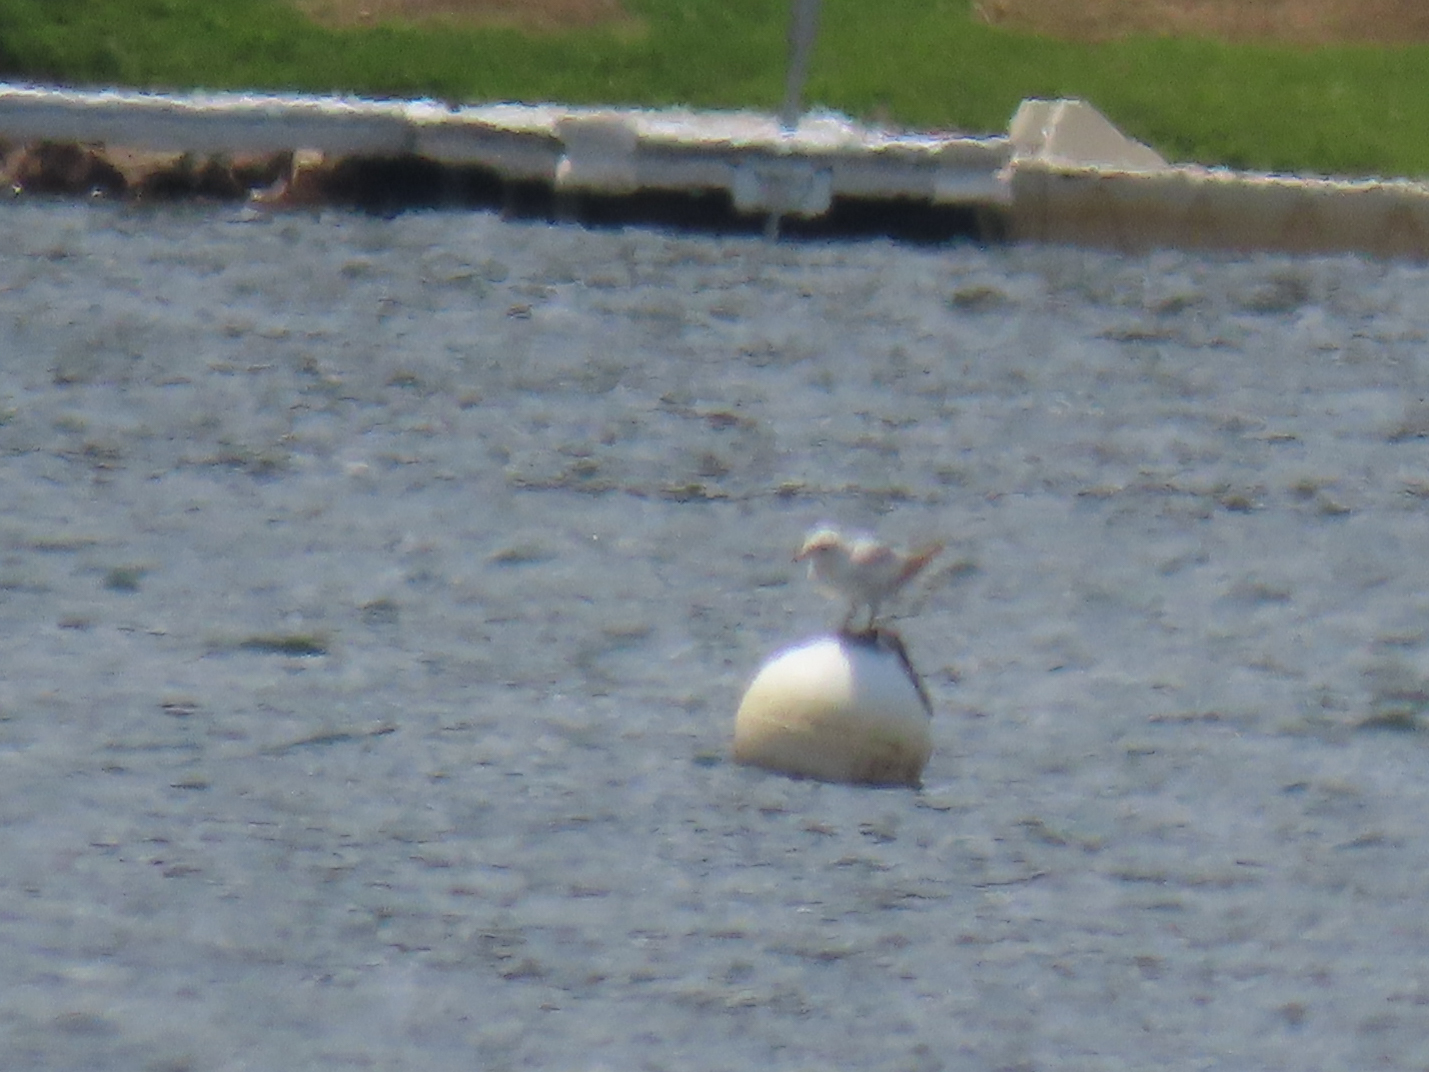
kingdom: Animalia
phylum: Chordata
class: Aves
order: Charadriiformes
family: Laridae
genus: Larus
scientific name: Larus delawarensis
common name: Ring-billed gull
